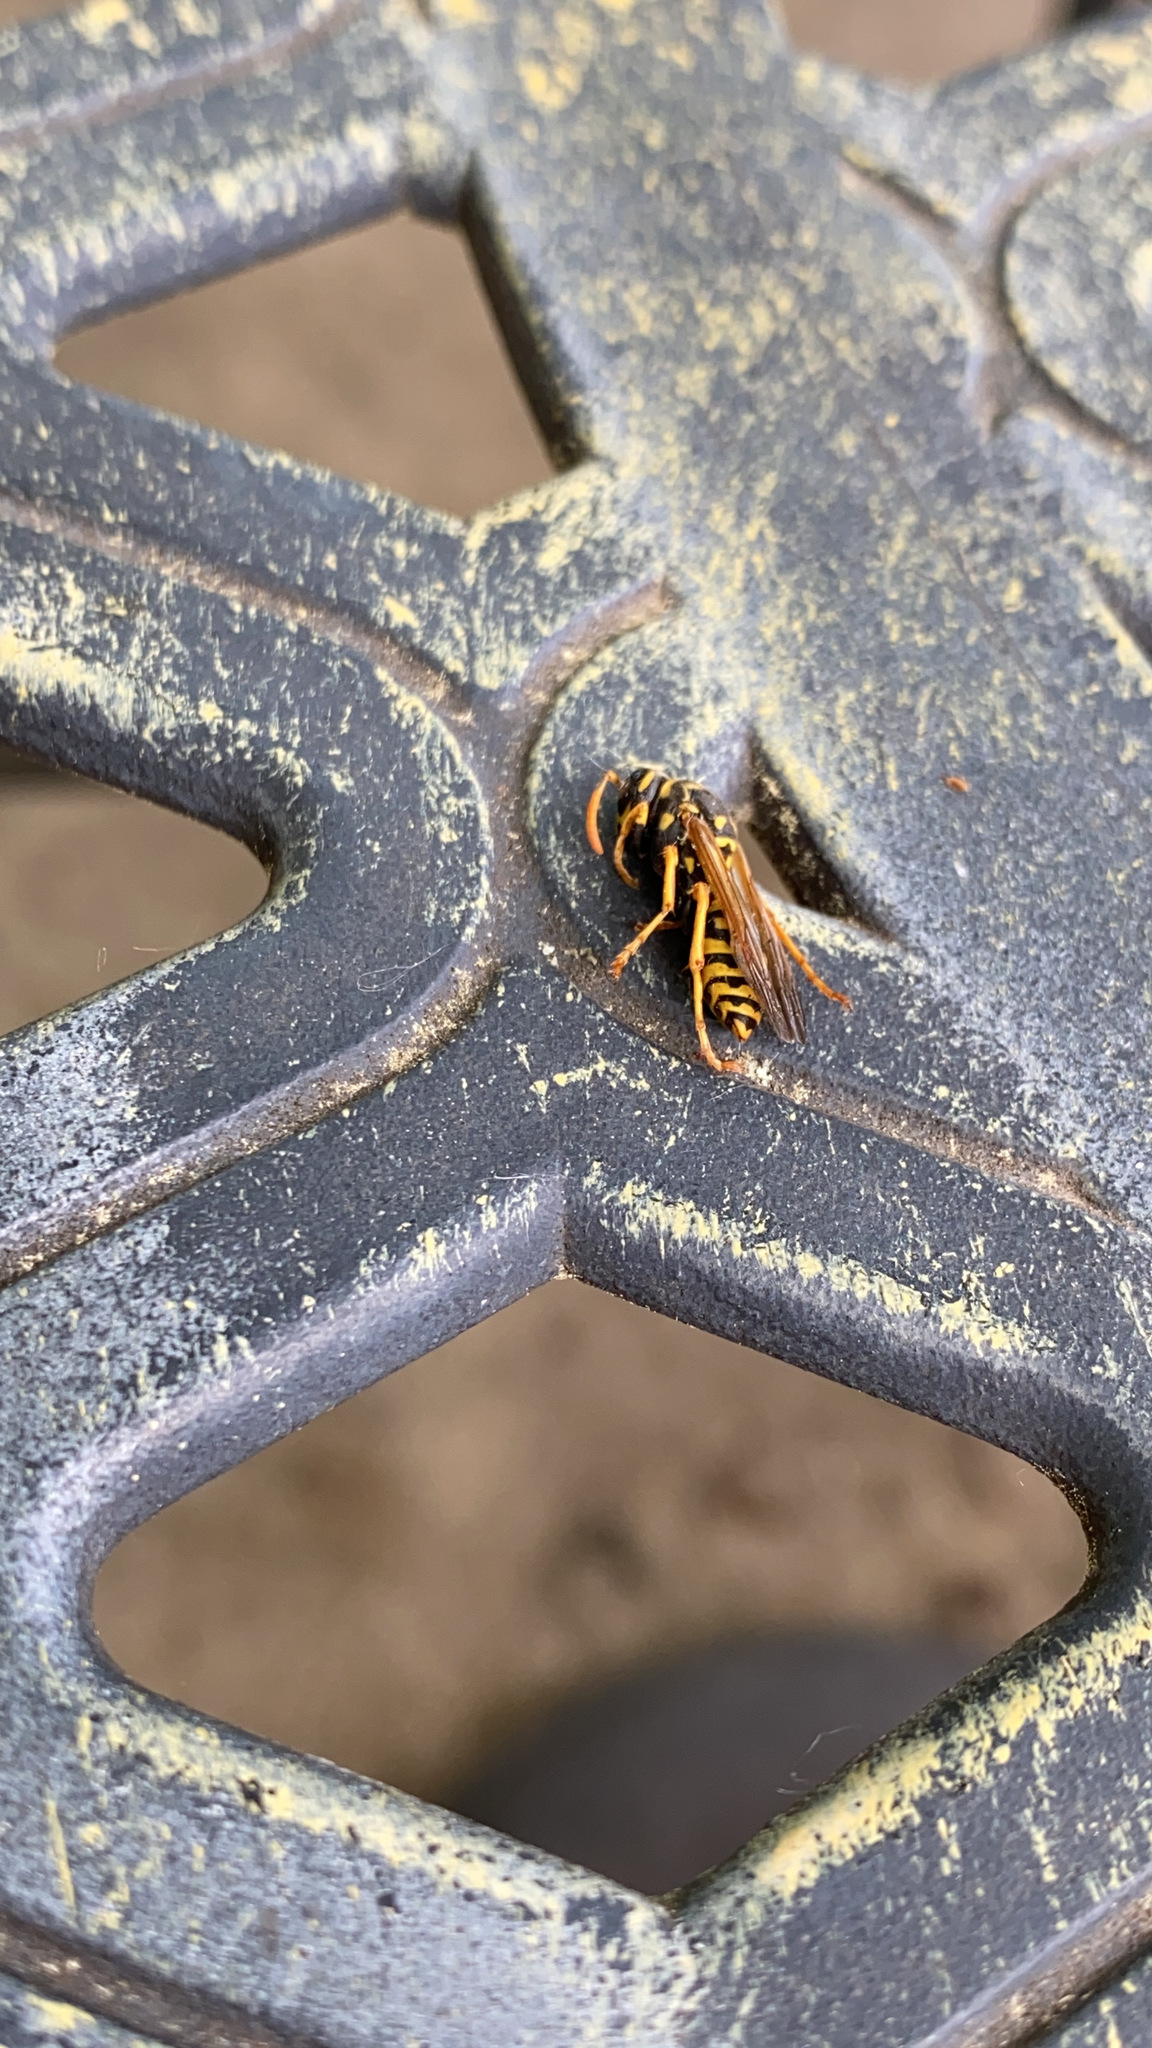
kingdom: Animalia
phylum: Arthropoda
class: Insecta
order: Hymenoptera
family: Eumenidae
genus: Polistes
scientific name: Polistes dominula
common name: Paper wasp
